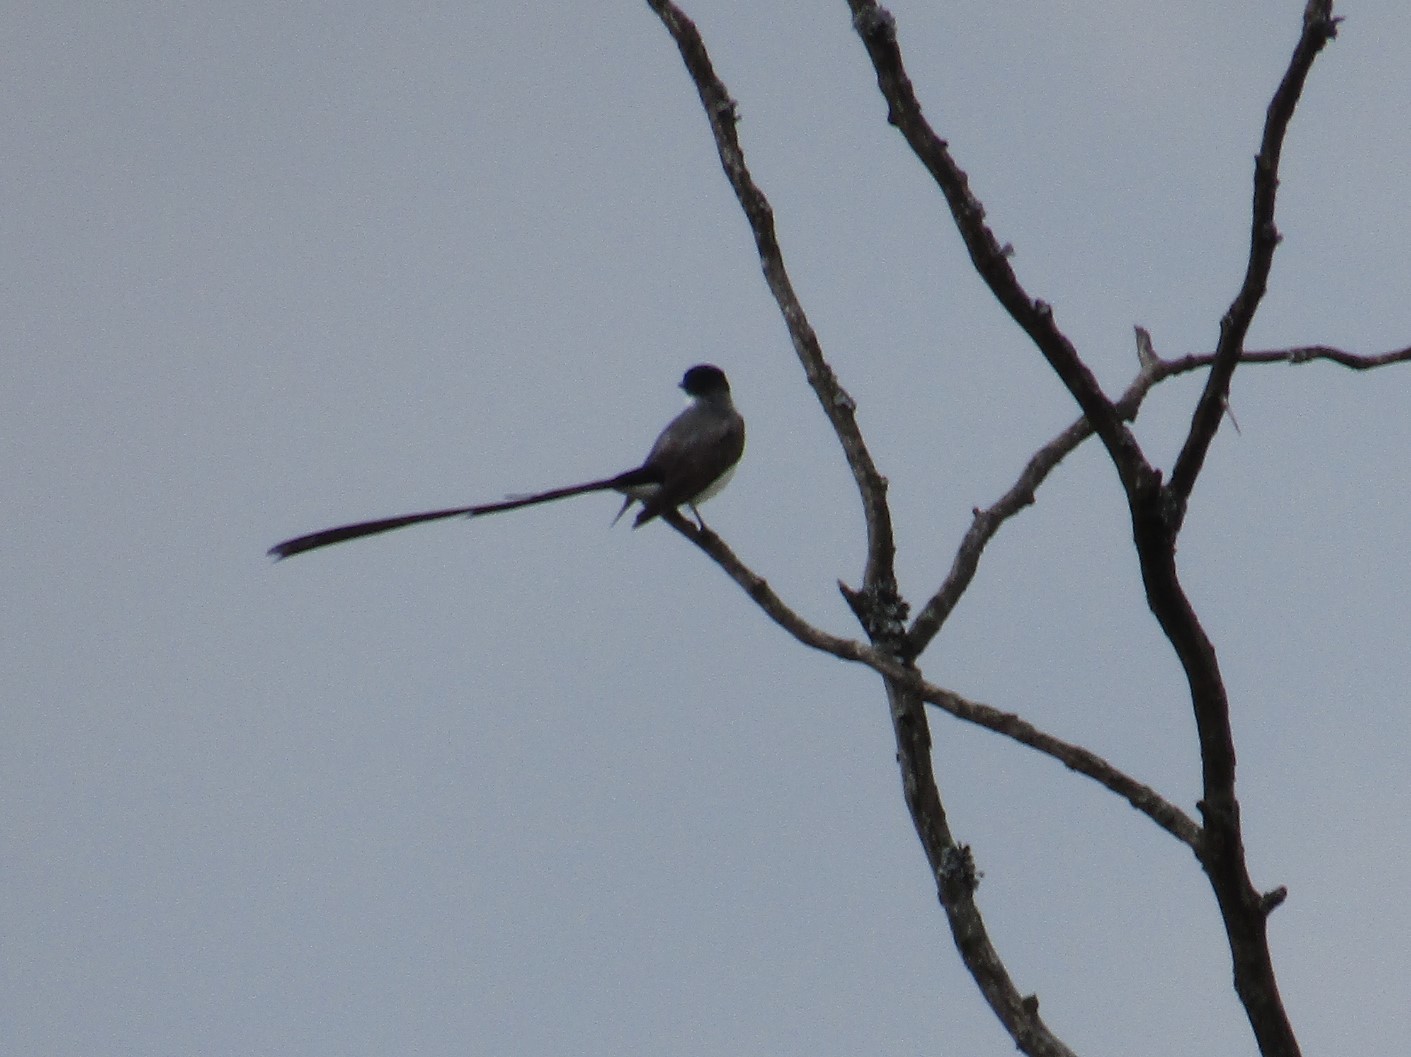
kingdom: Animalia
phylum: Chordata
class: Aves
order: Passeriformes
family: Tyrannidae
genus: Tyrannus
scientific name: Tyrannus savana
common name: Fork-tailed flycatcher
